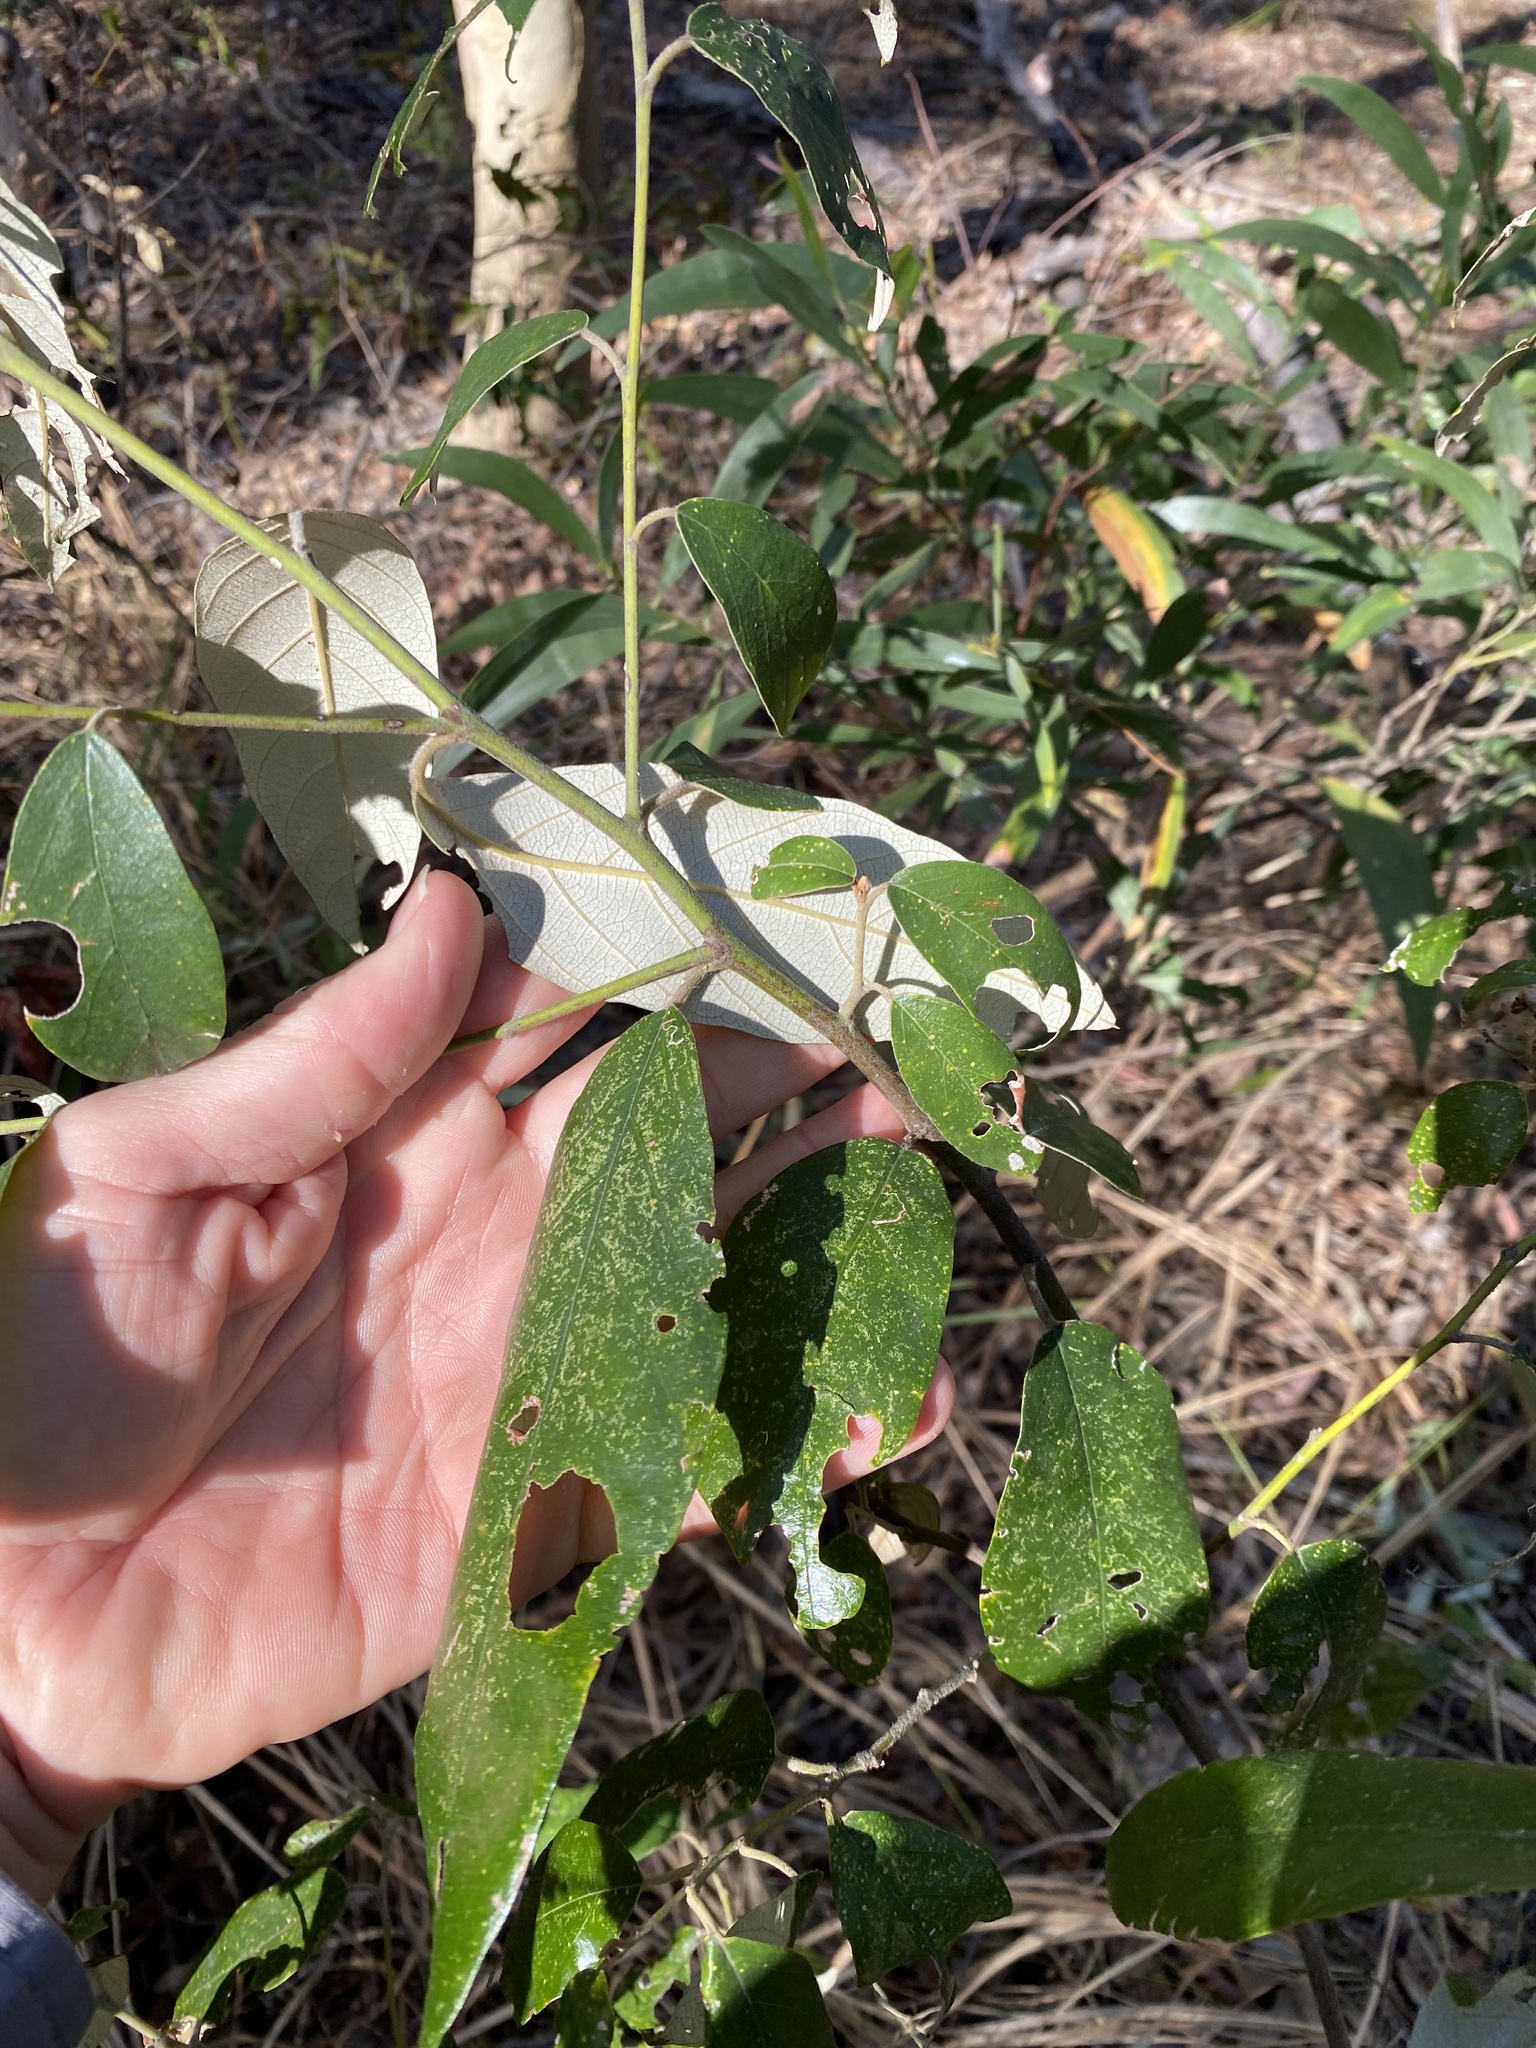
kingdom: Plantae
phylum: Tracheophyta
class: Magnoliopsida
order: Rosales
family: Rhamnaceae
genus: Alphitonia
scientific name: Alphitonia excelsa
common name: Red ash
